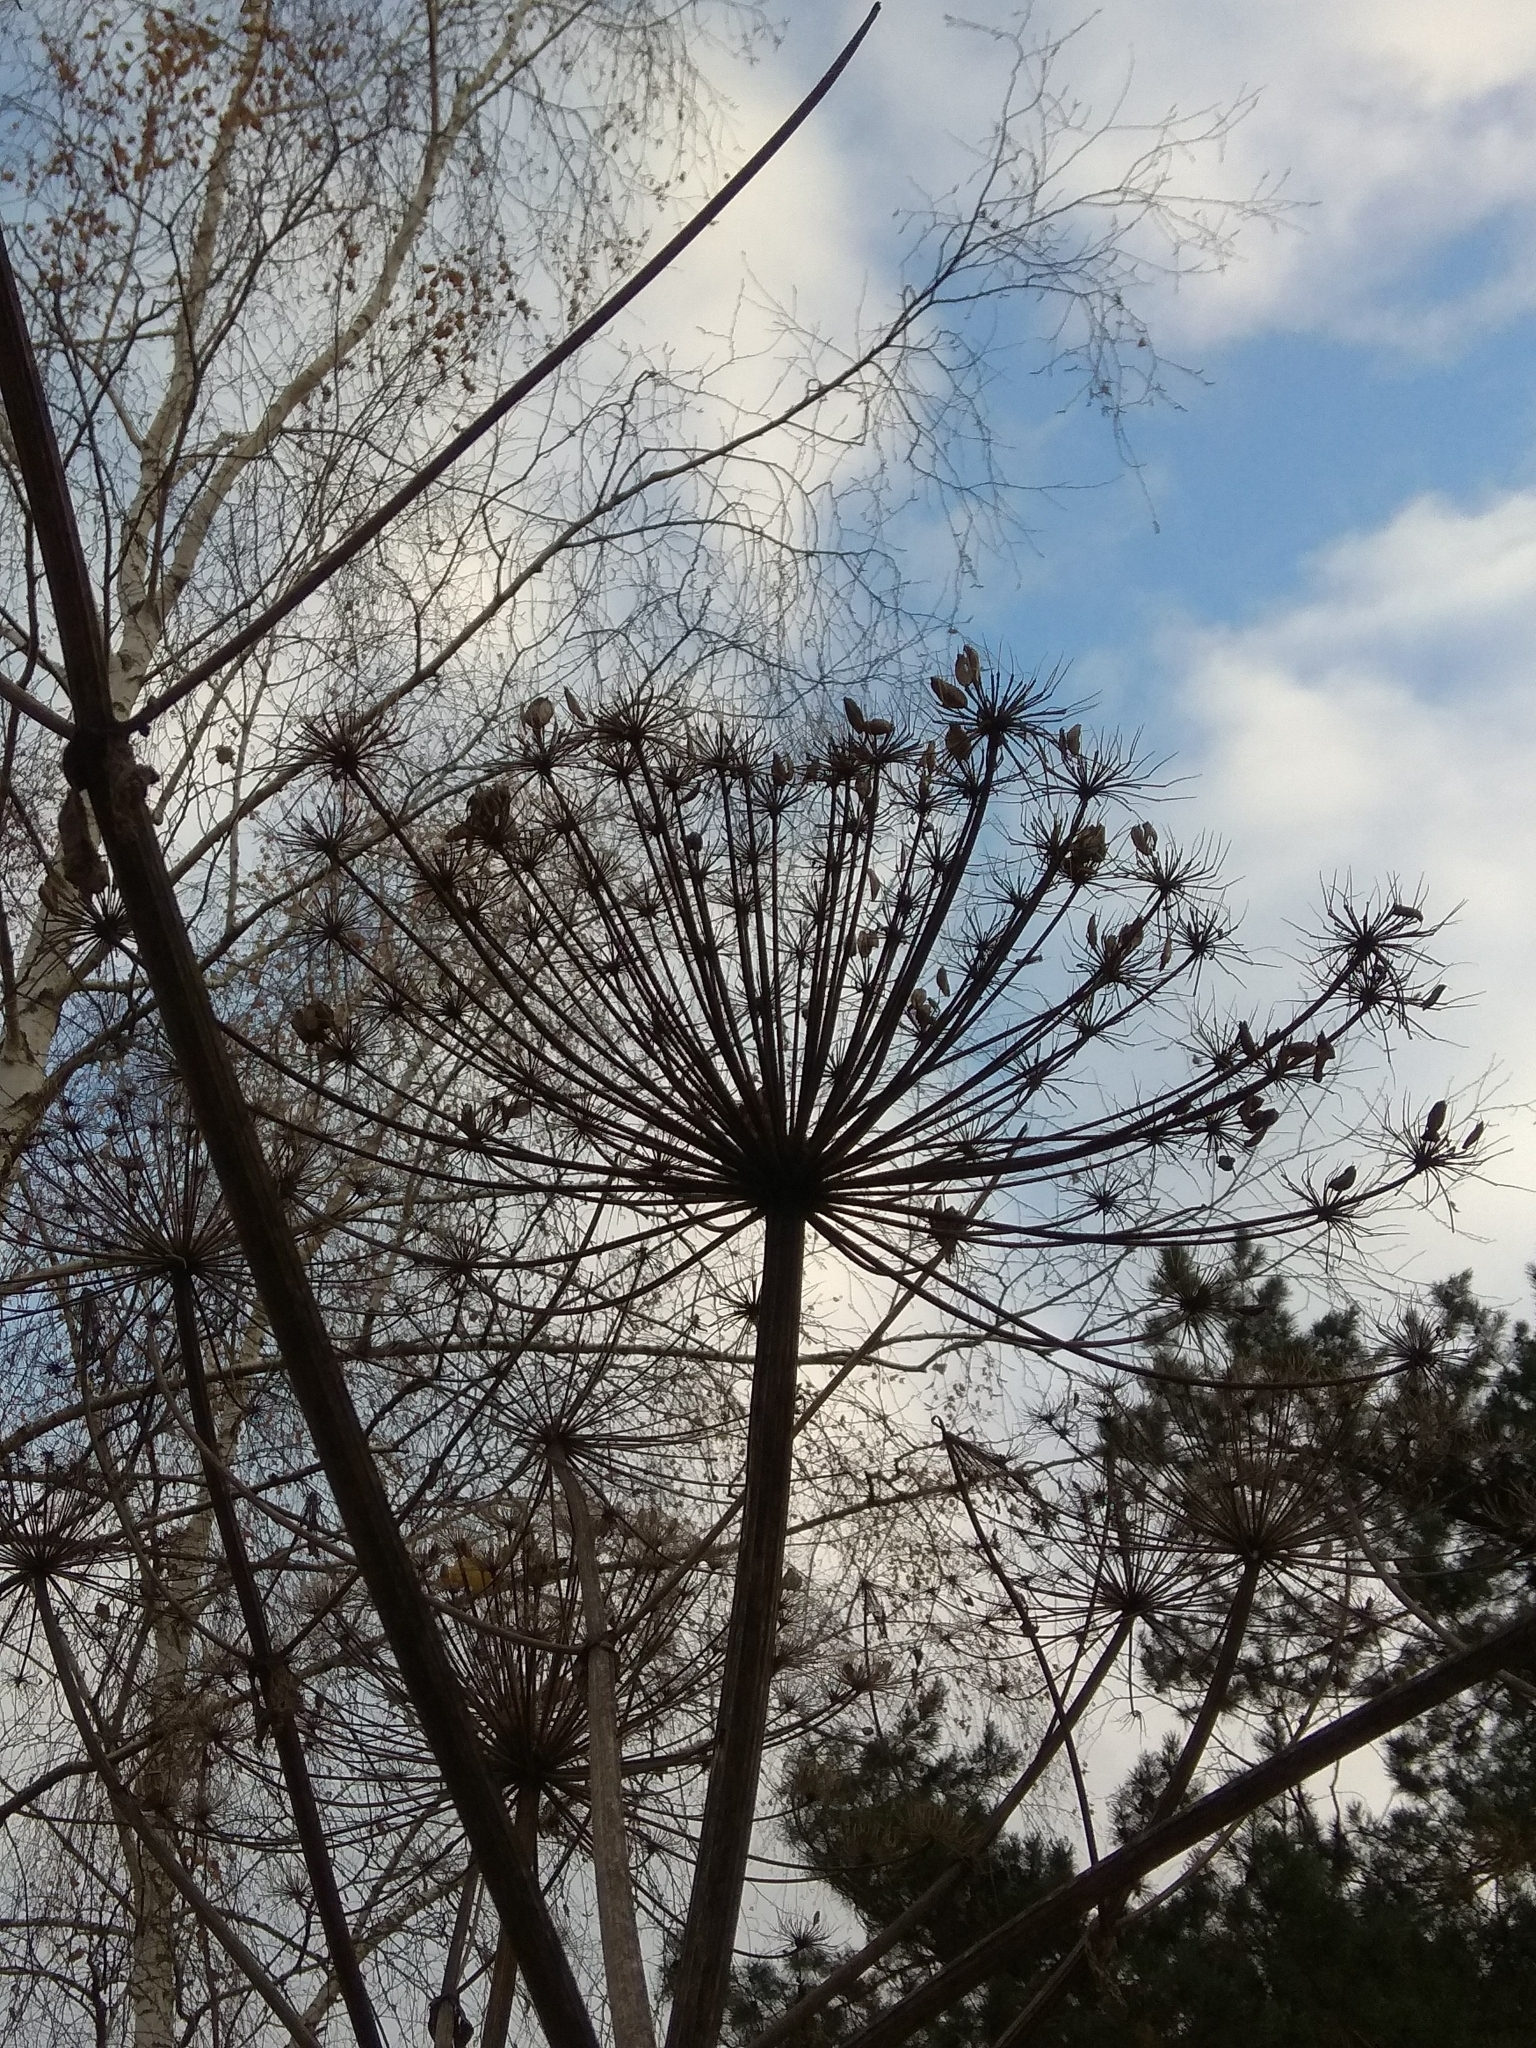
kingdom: Plantae
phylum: Tracheophyta
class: Magnoliopsida
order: Apiales
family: Apiaceae
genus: Heracleum
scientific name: Heracleum sosnowskyi
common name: Sosnowsky's hogweed
